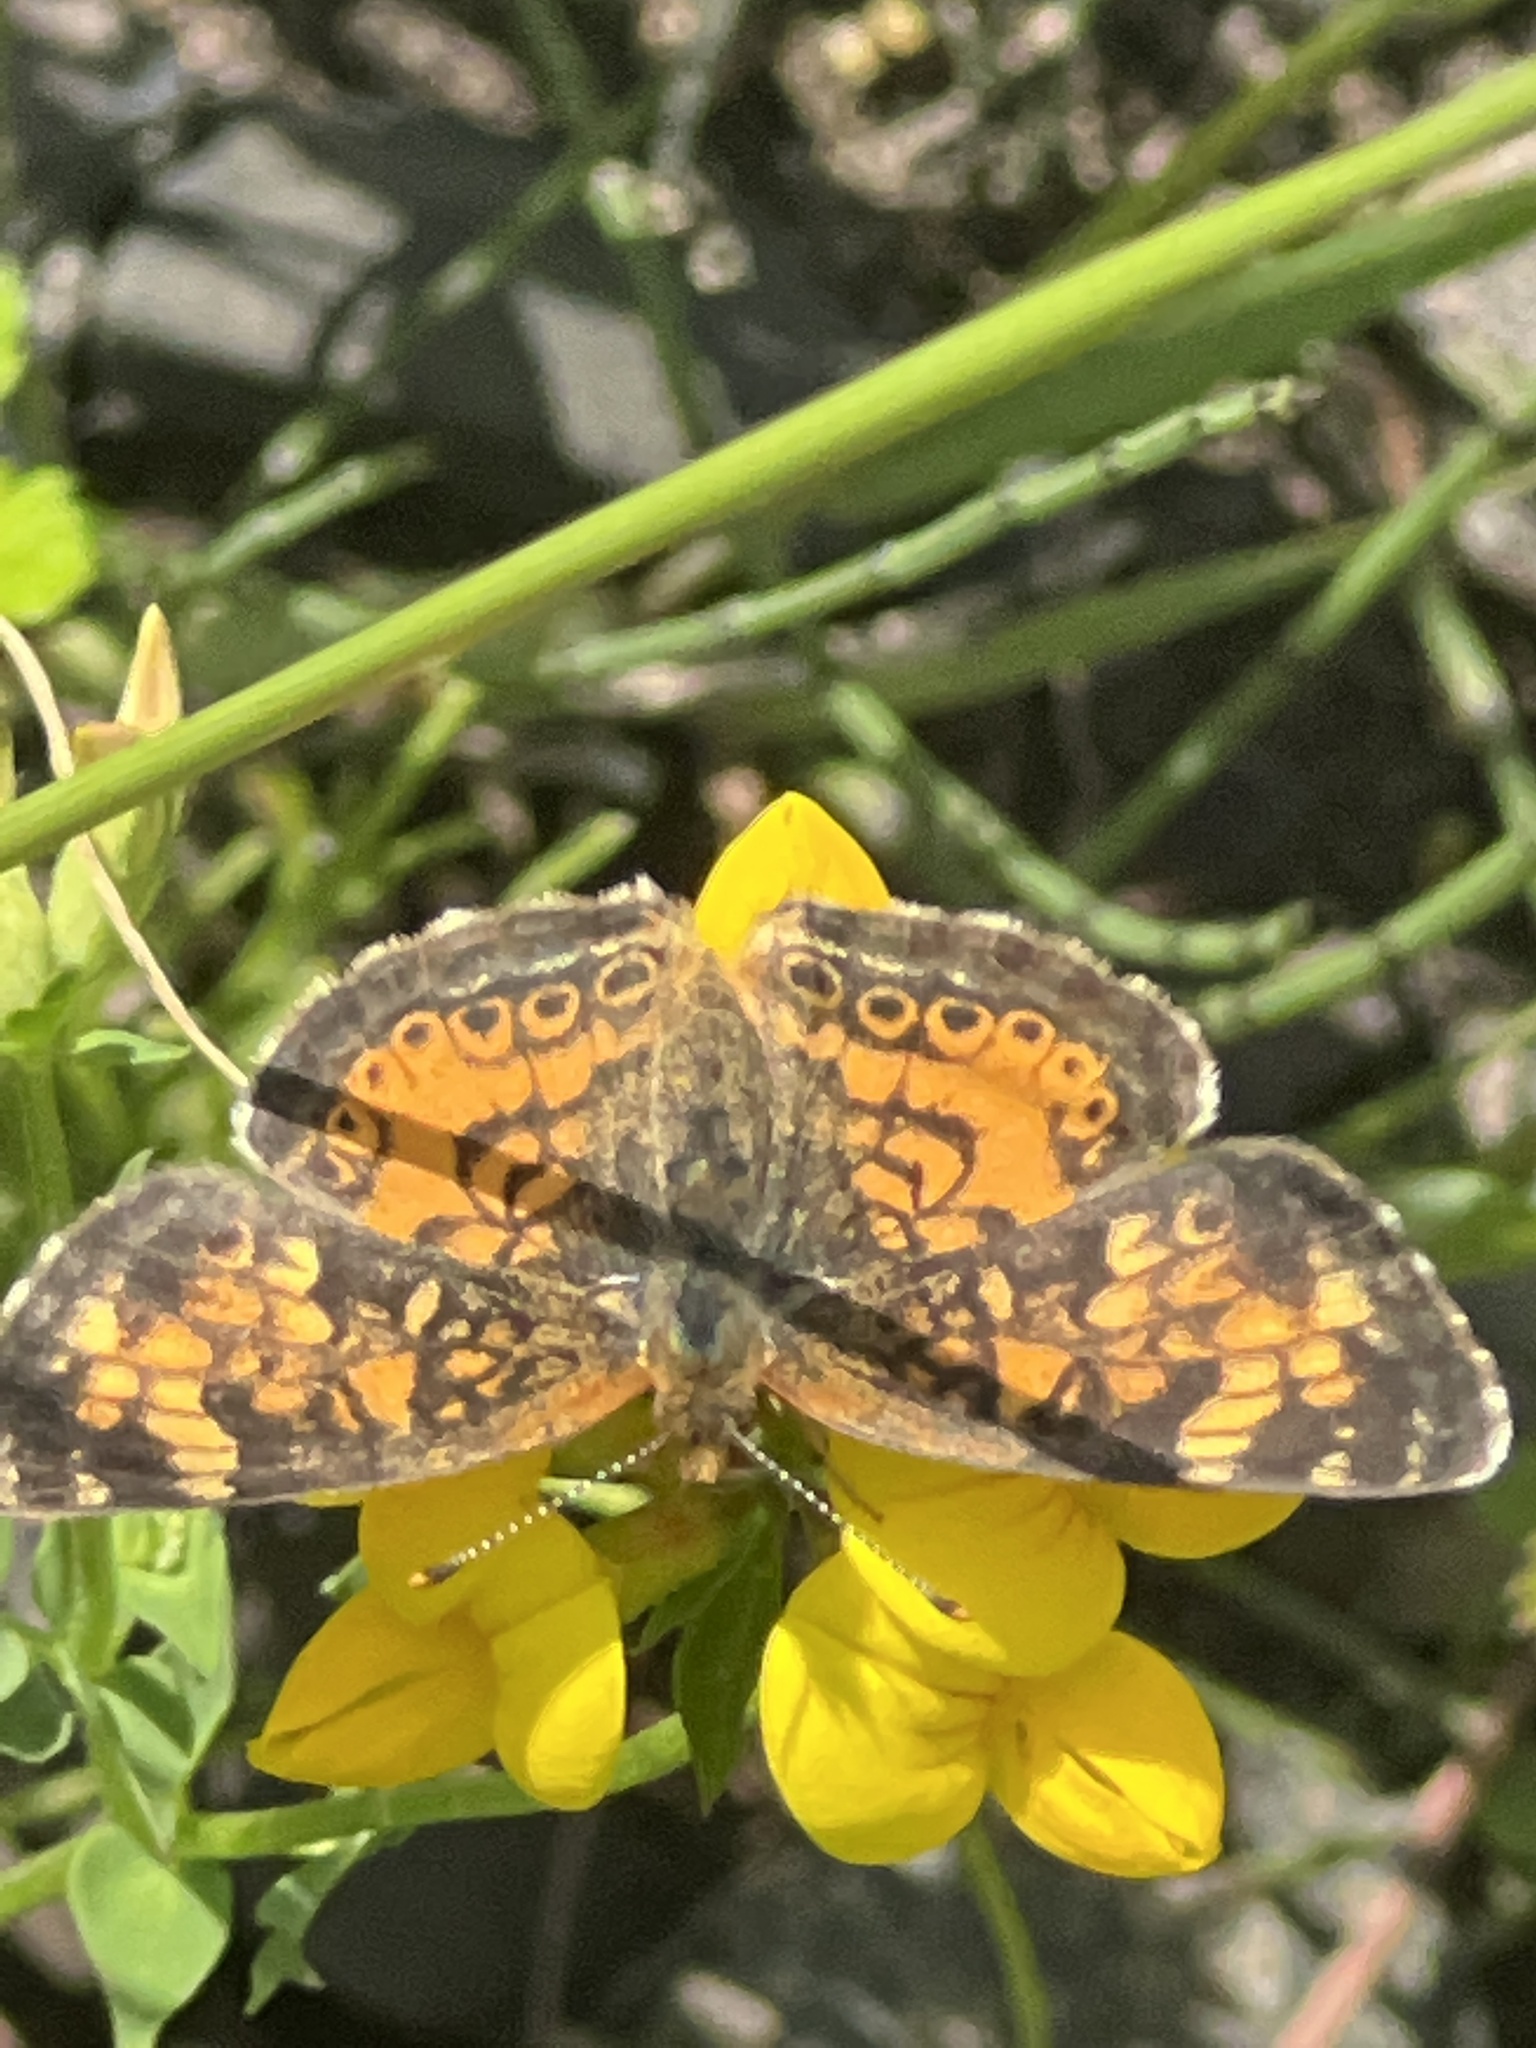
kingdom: Animalia
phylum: Arthropoda
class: Insecta
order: Lepidoptera
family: Nymphalidae
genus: Phyciodes
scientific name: Phyciodes tharos
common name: Pearl crescent
